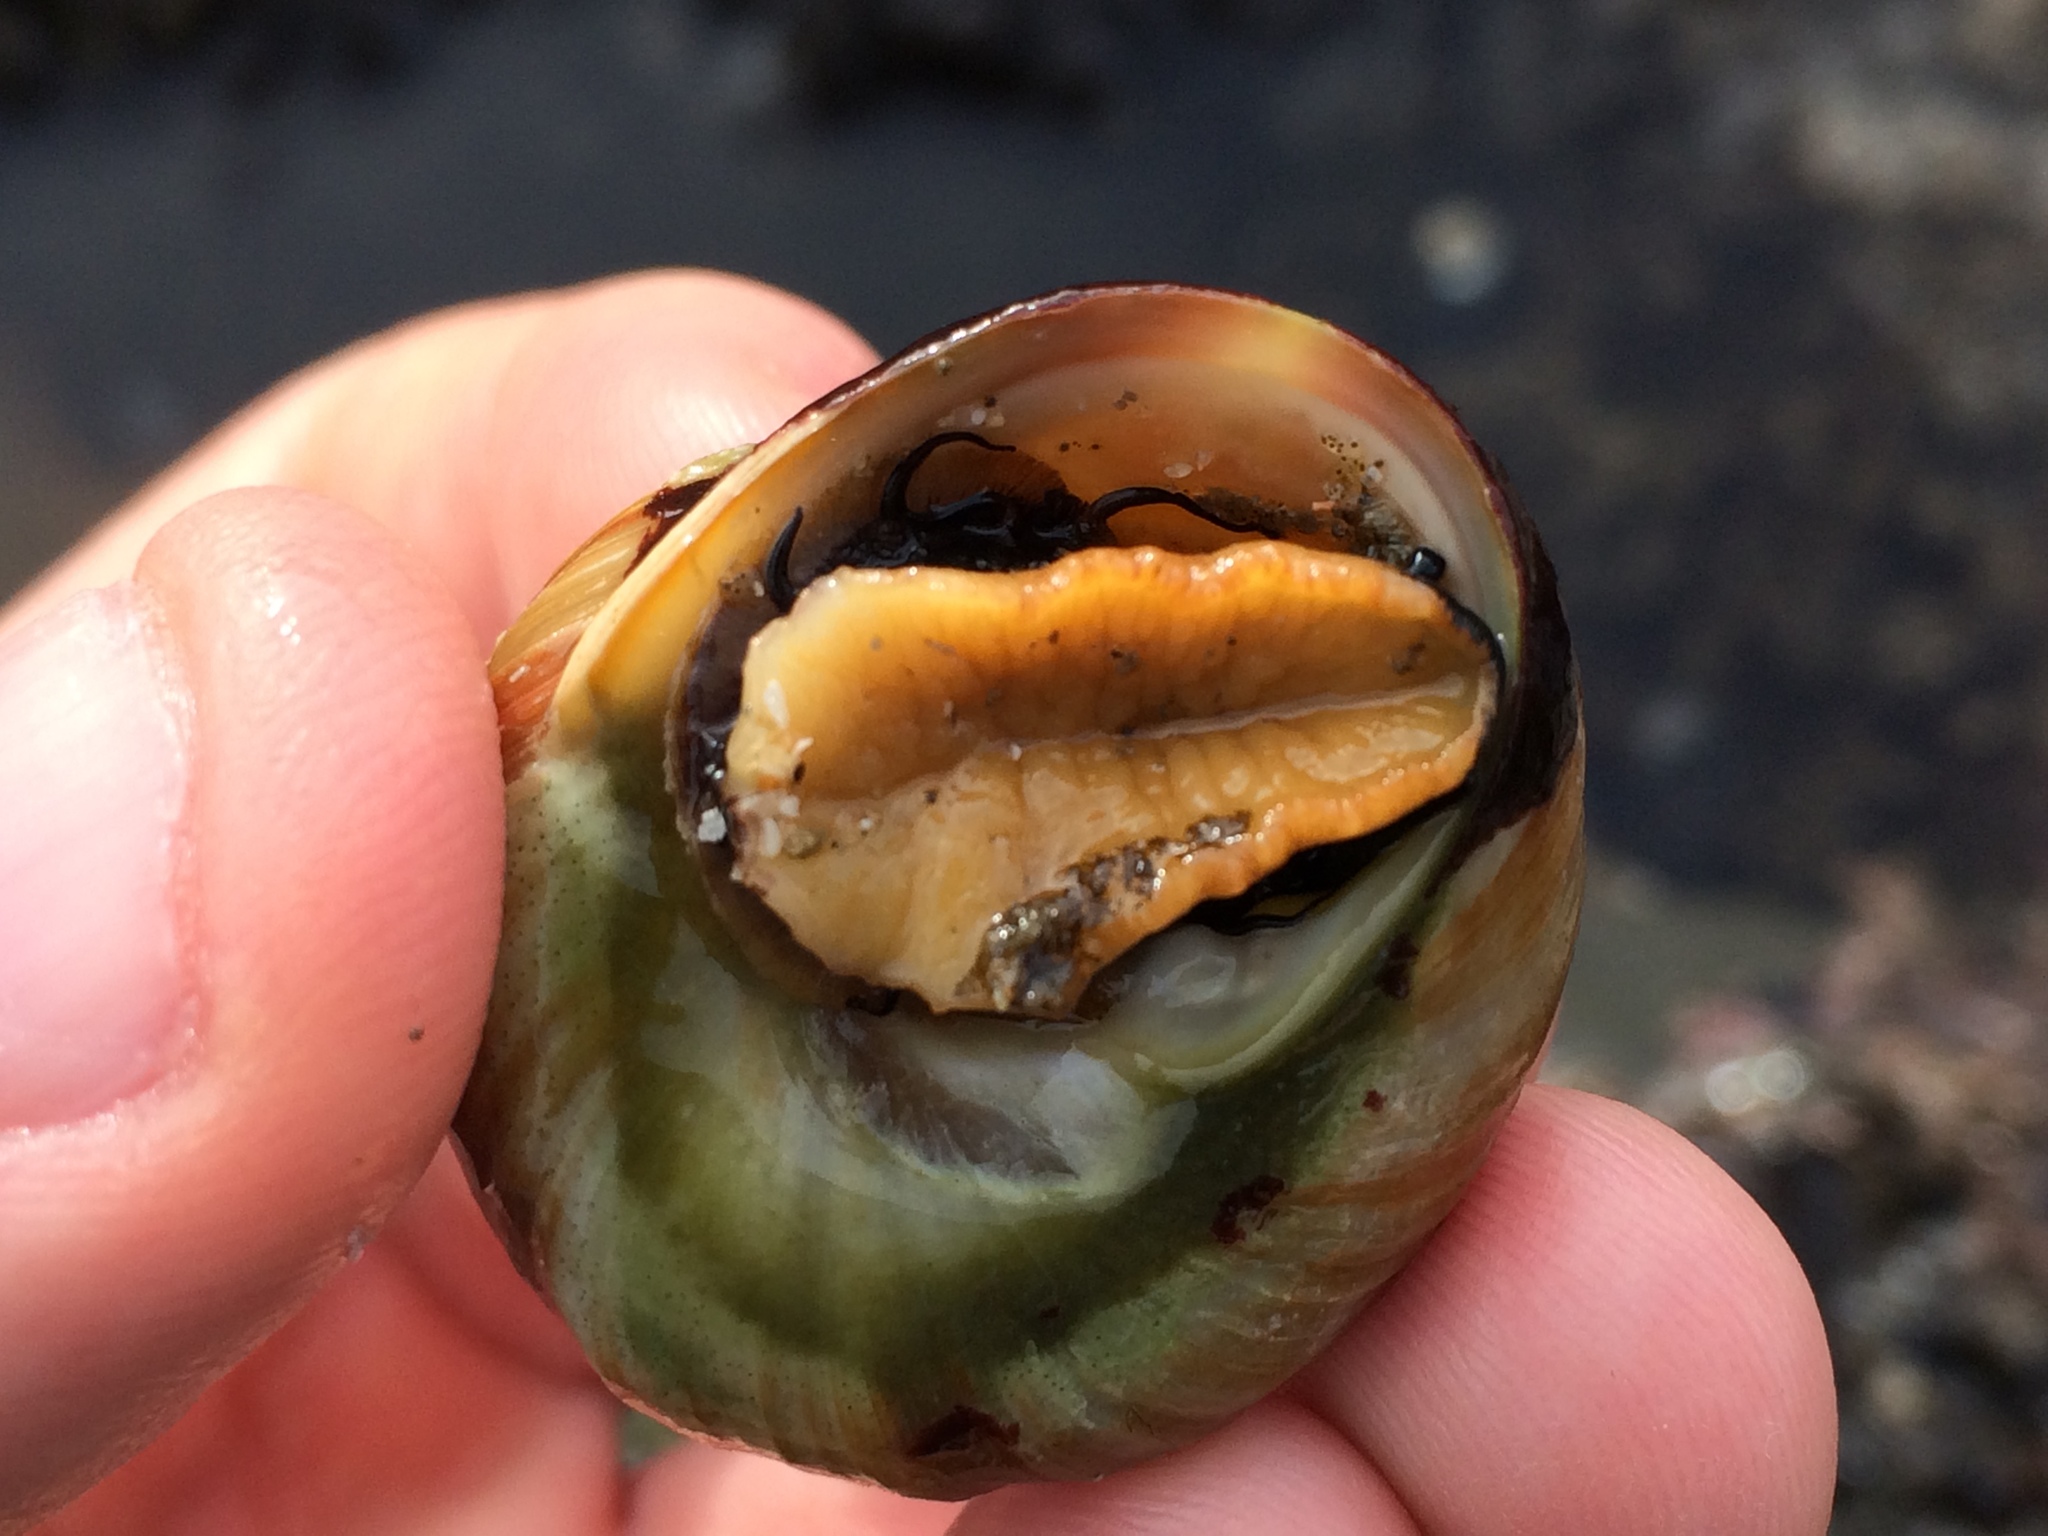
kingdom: Animalia
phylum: Mollusca
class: Gastropoda
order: Trochida
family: Tegulidae
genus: Tegula
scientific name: Tegula brunnea
